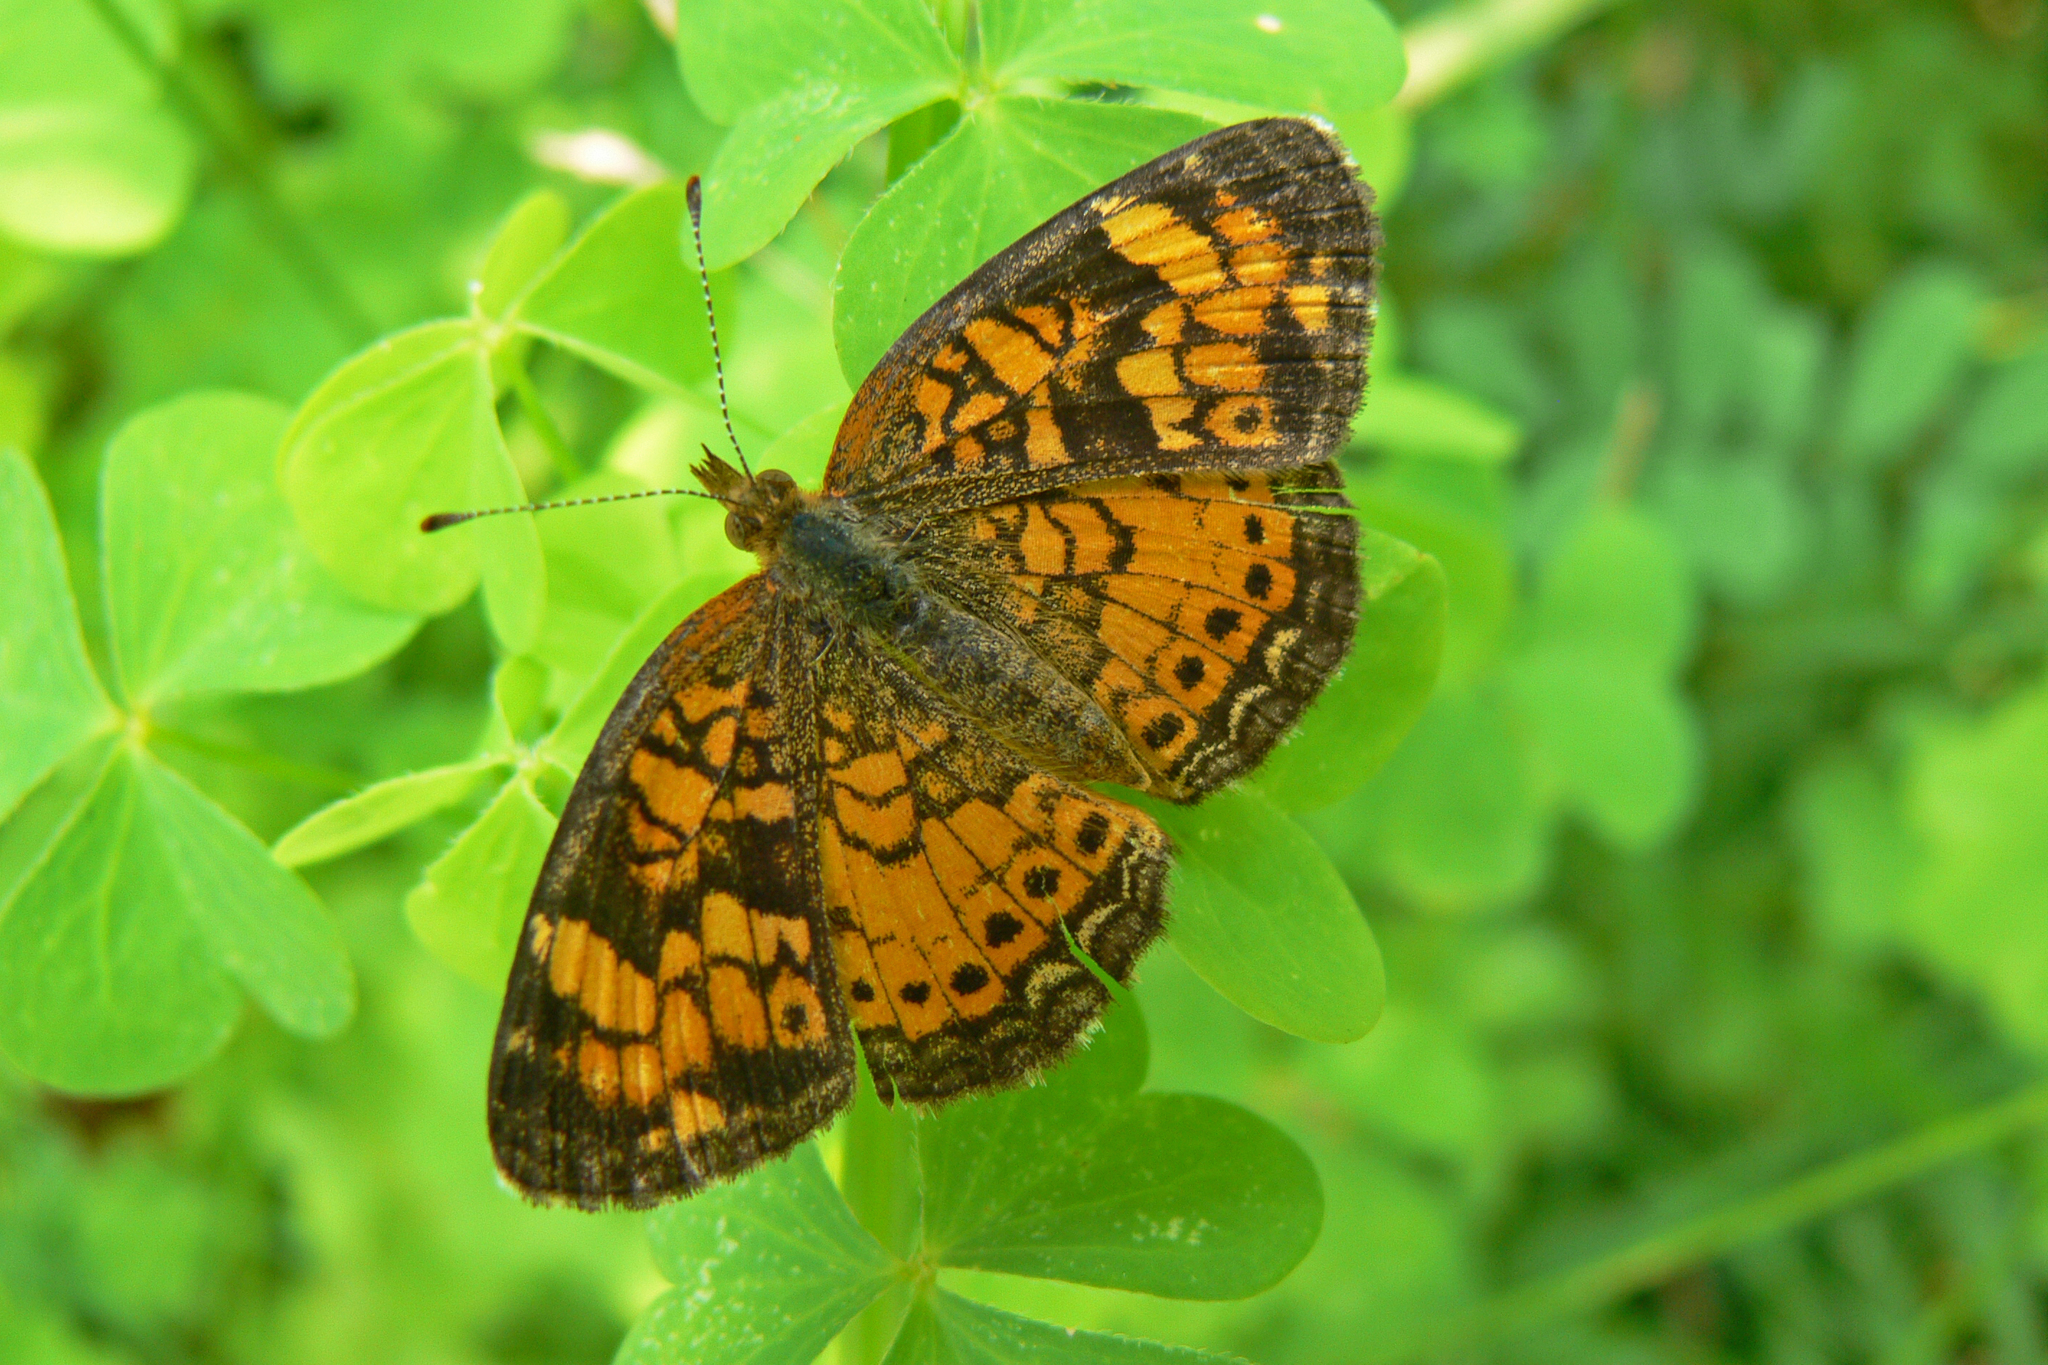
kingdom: Animalia
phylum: Arthropoda
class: Insecta
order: Lepidoptera
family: Nymphalidae
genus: Phyciodes
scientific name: Phyciodes tharos
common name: Pearl crescent
